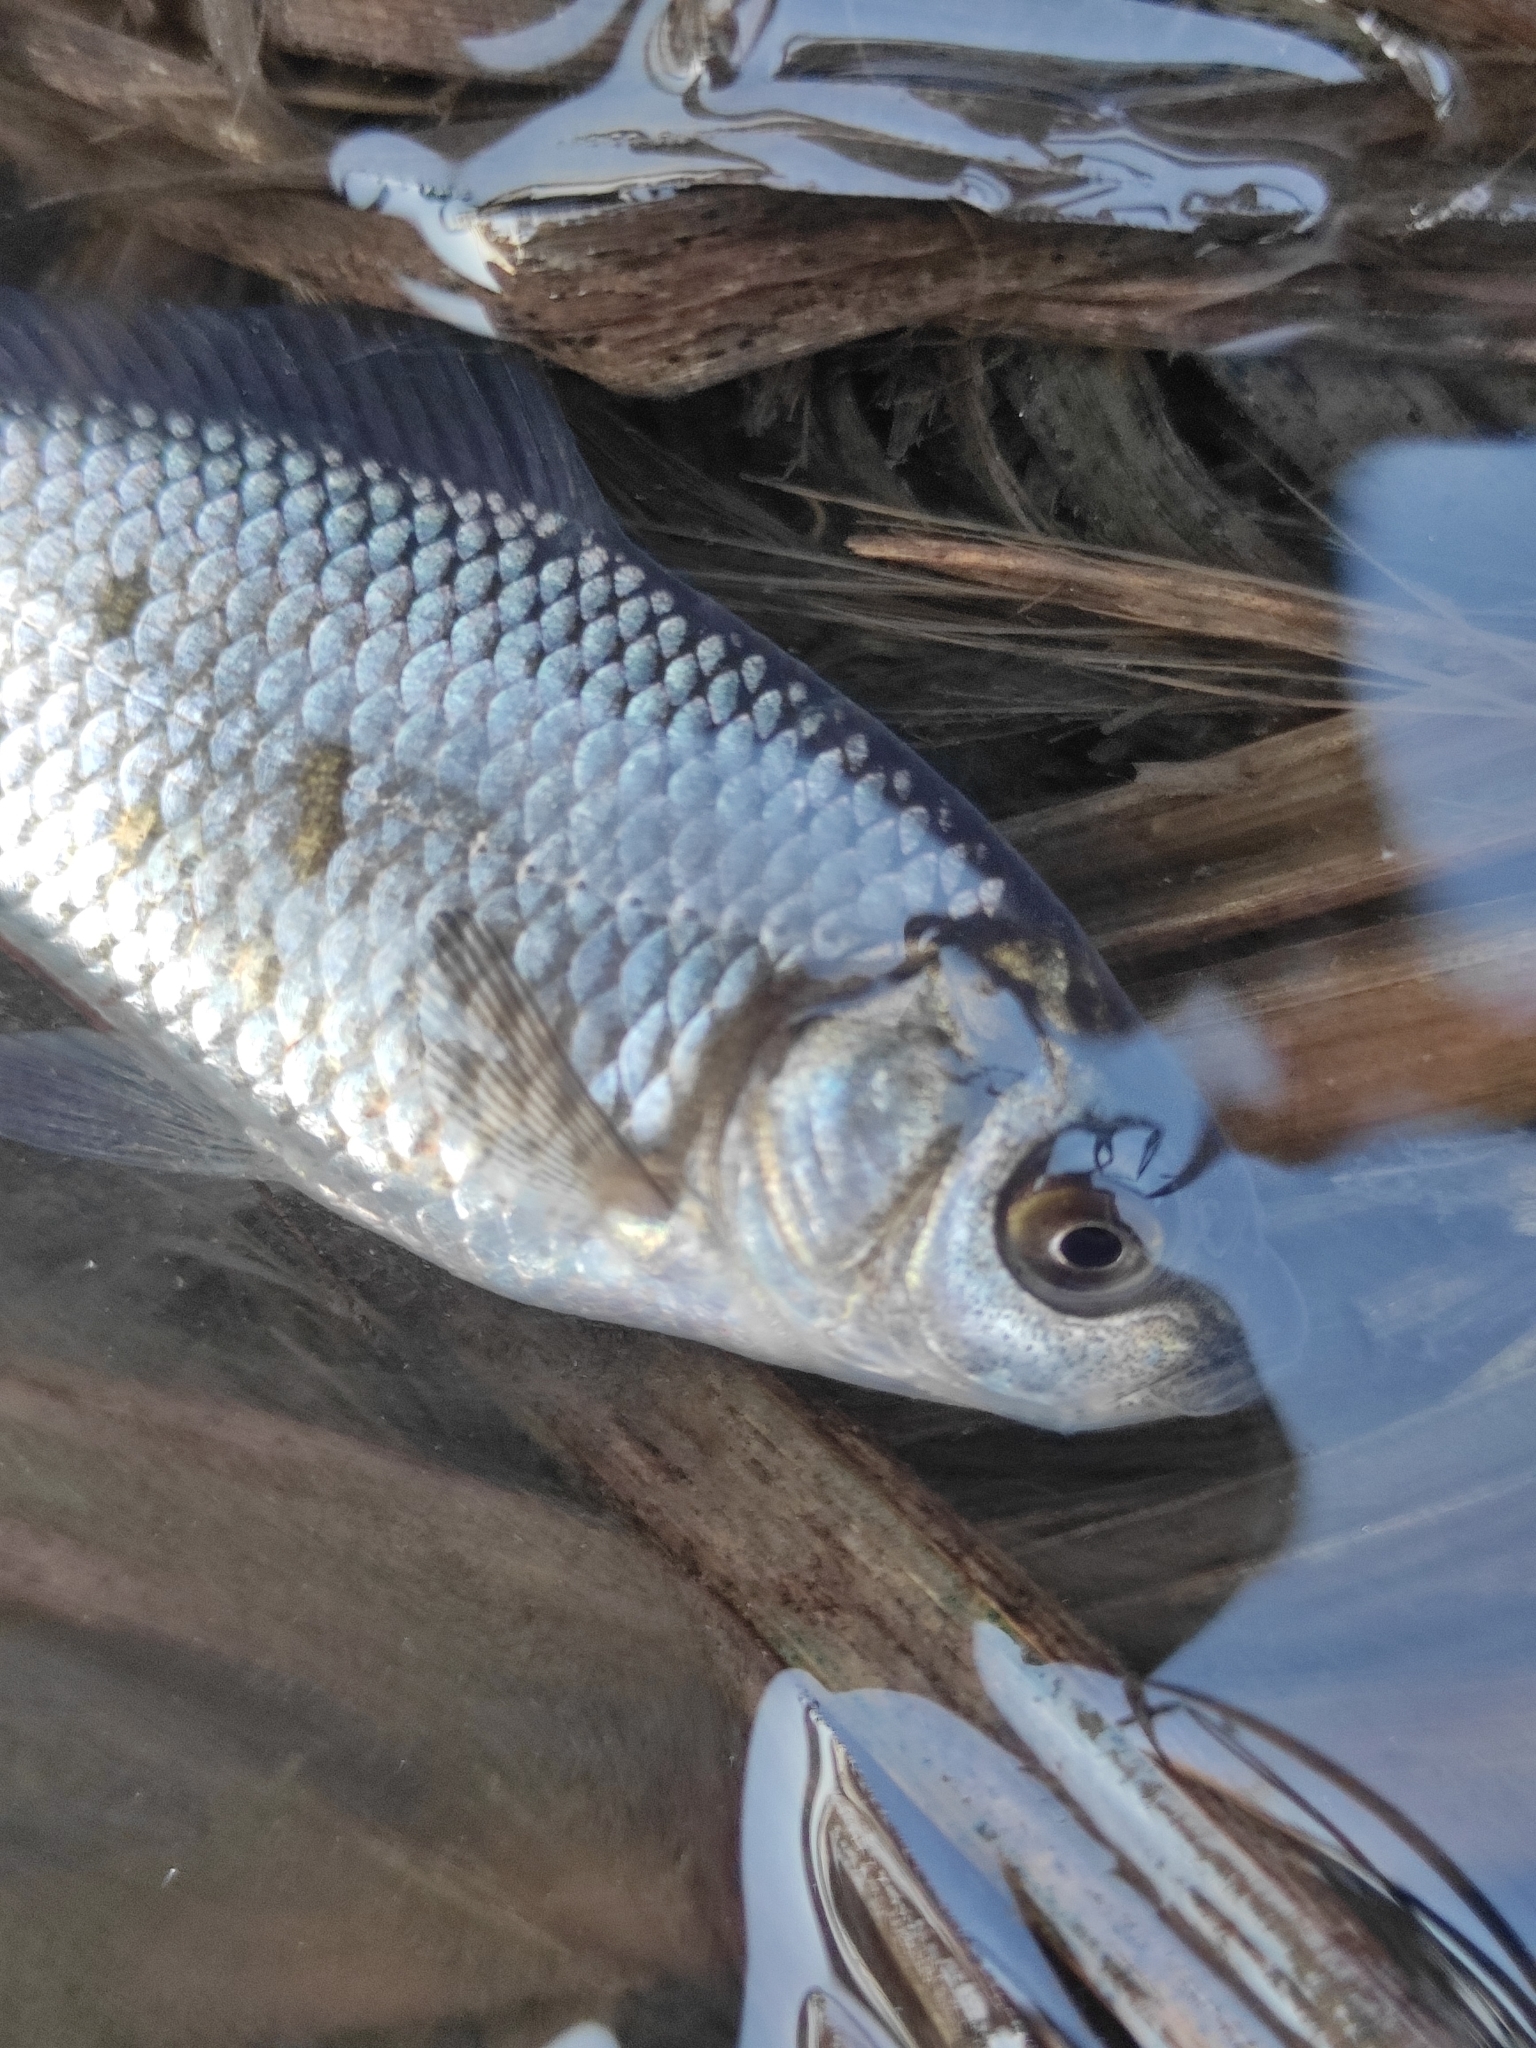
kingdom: Animalia
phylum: Chordata
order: Cypriniformes
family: Cyprinidae
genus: Carassius
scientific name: Carassius gibelio
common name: Prussian carp
